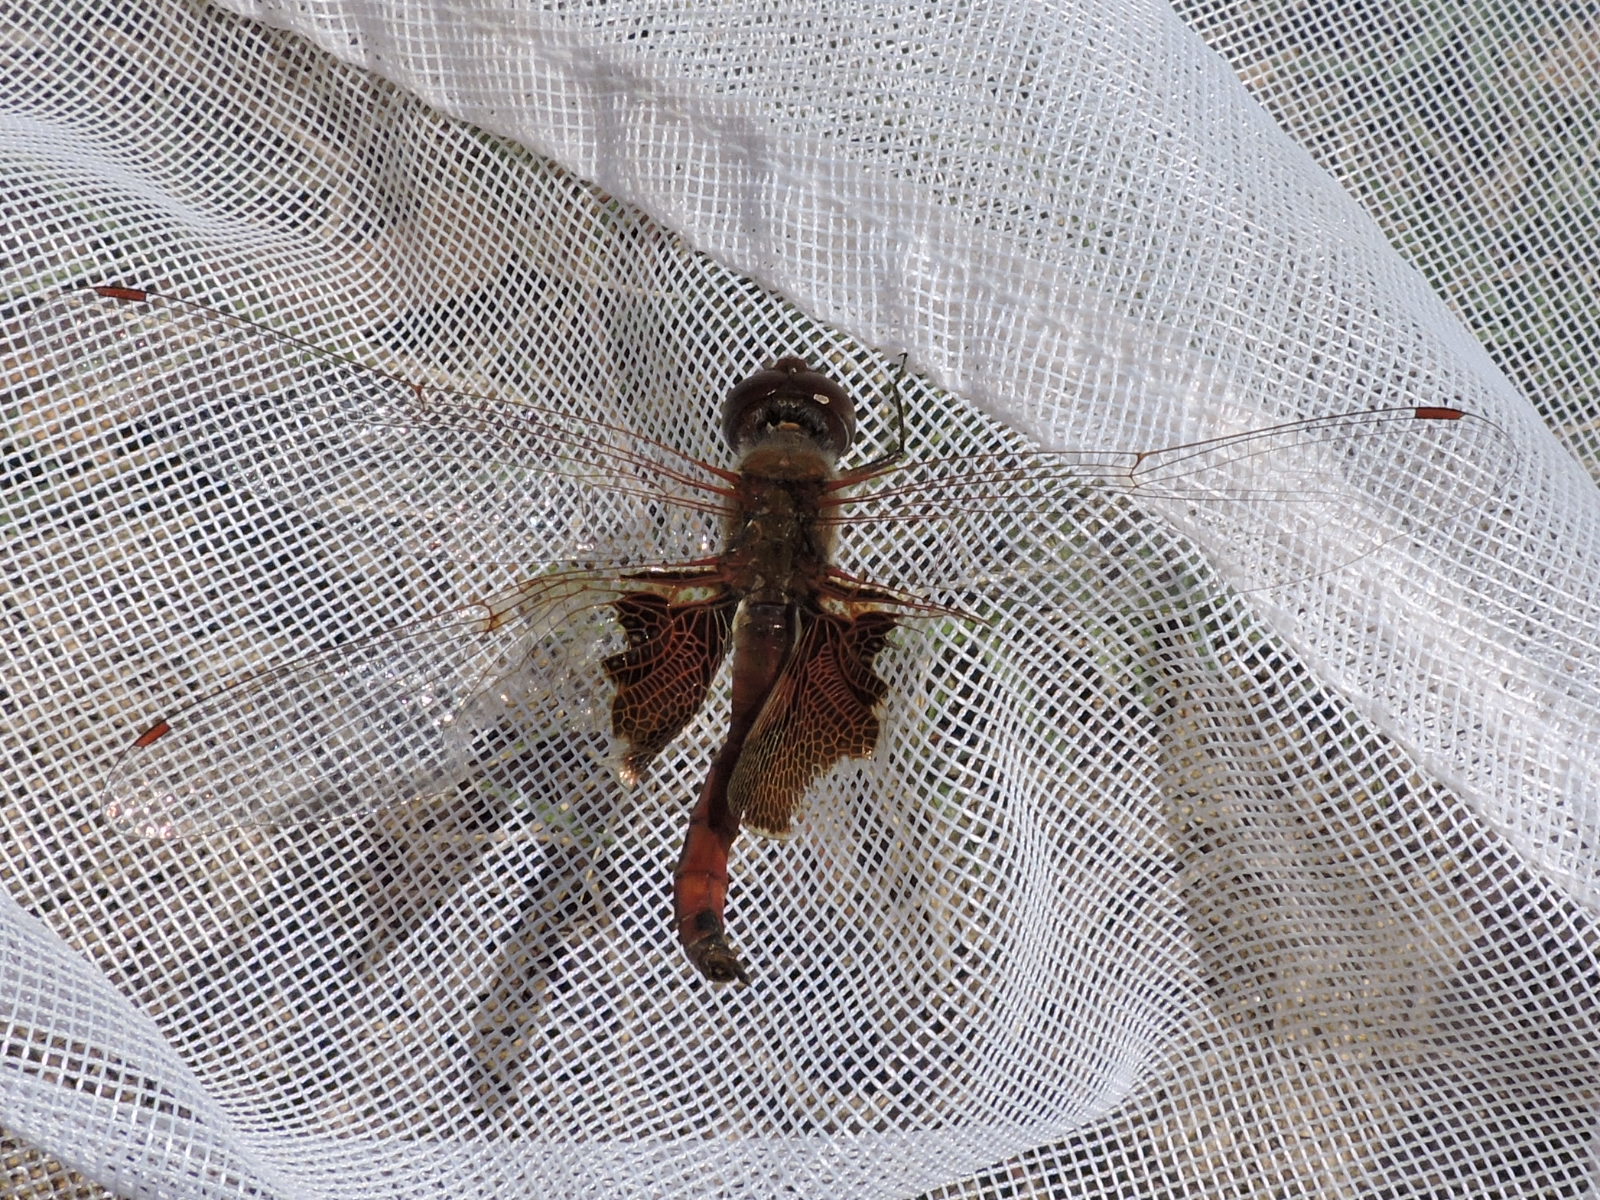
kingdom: Animalia
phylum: Arthropoda
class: Insecta
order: Odonata
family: Libellulidae
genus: Tramea
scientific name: Tramea onusta
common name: Red saddlebags
